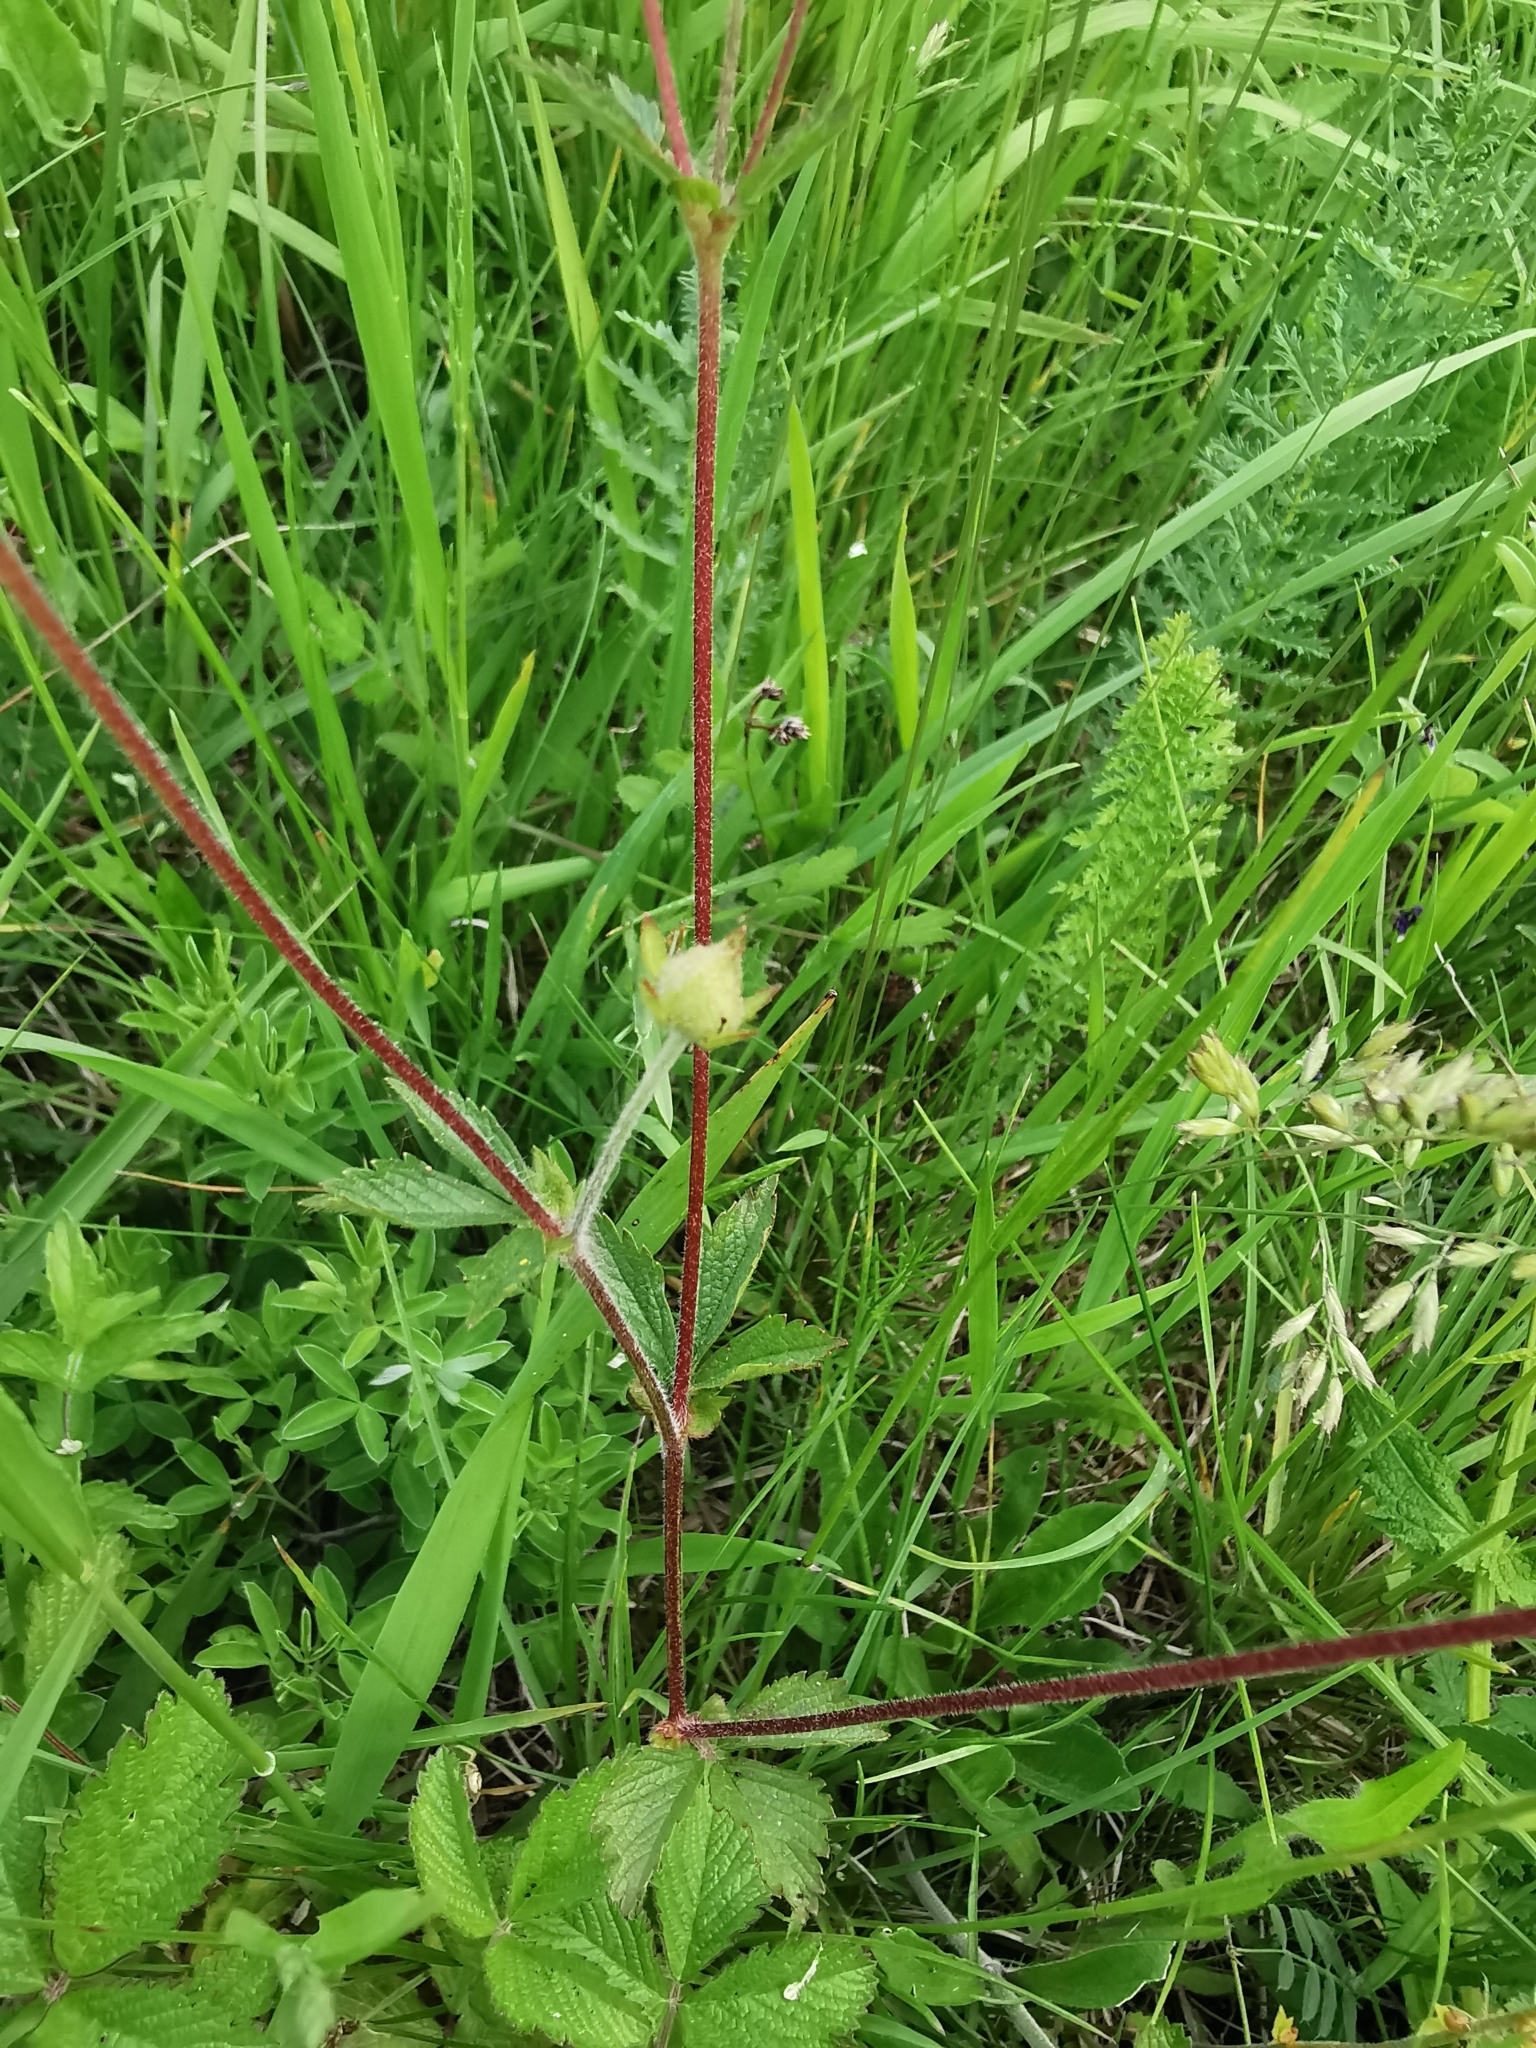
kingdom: Plantae
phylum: Tracheophyta
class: Magnoliopsida
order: Rosales
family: Rosaceae
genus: Drymocallis
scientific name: Drymocallis rupestris
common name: Rock cinquefoil
